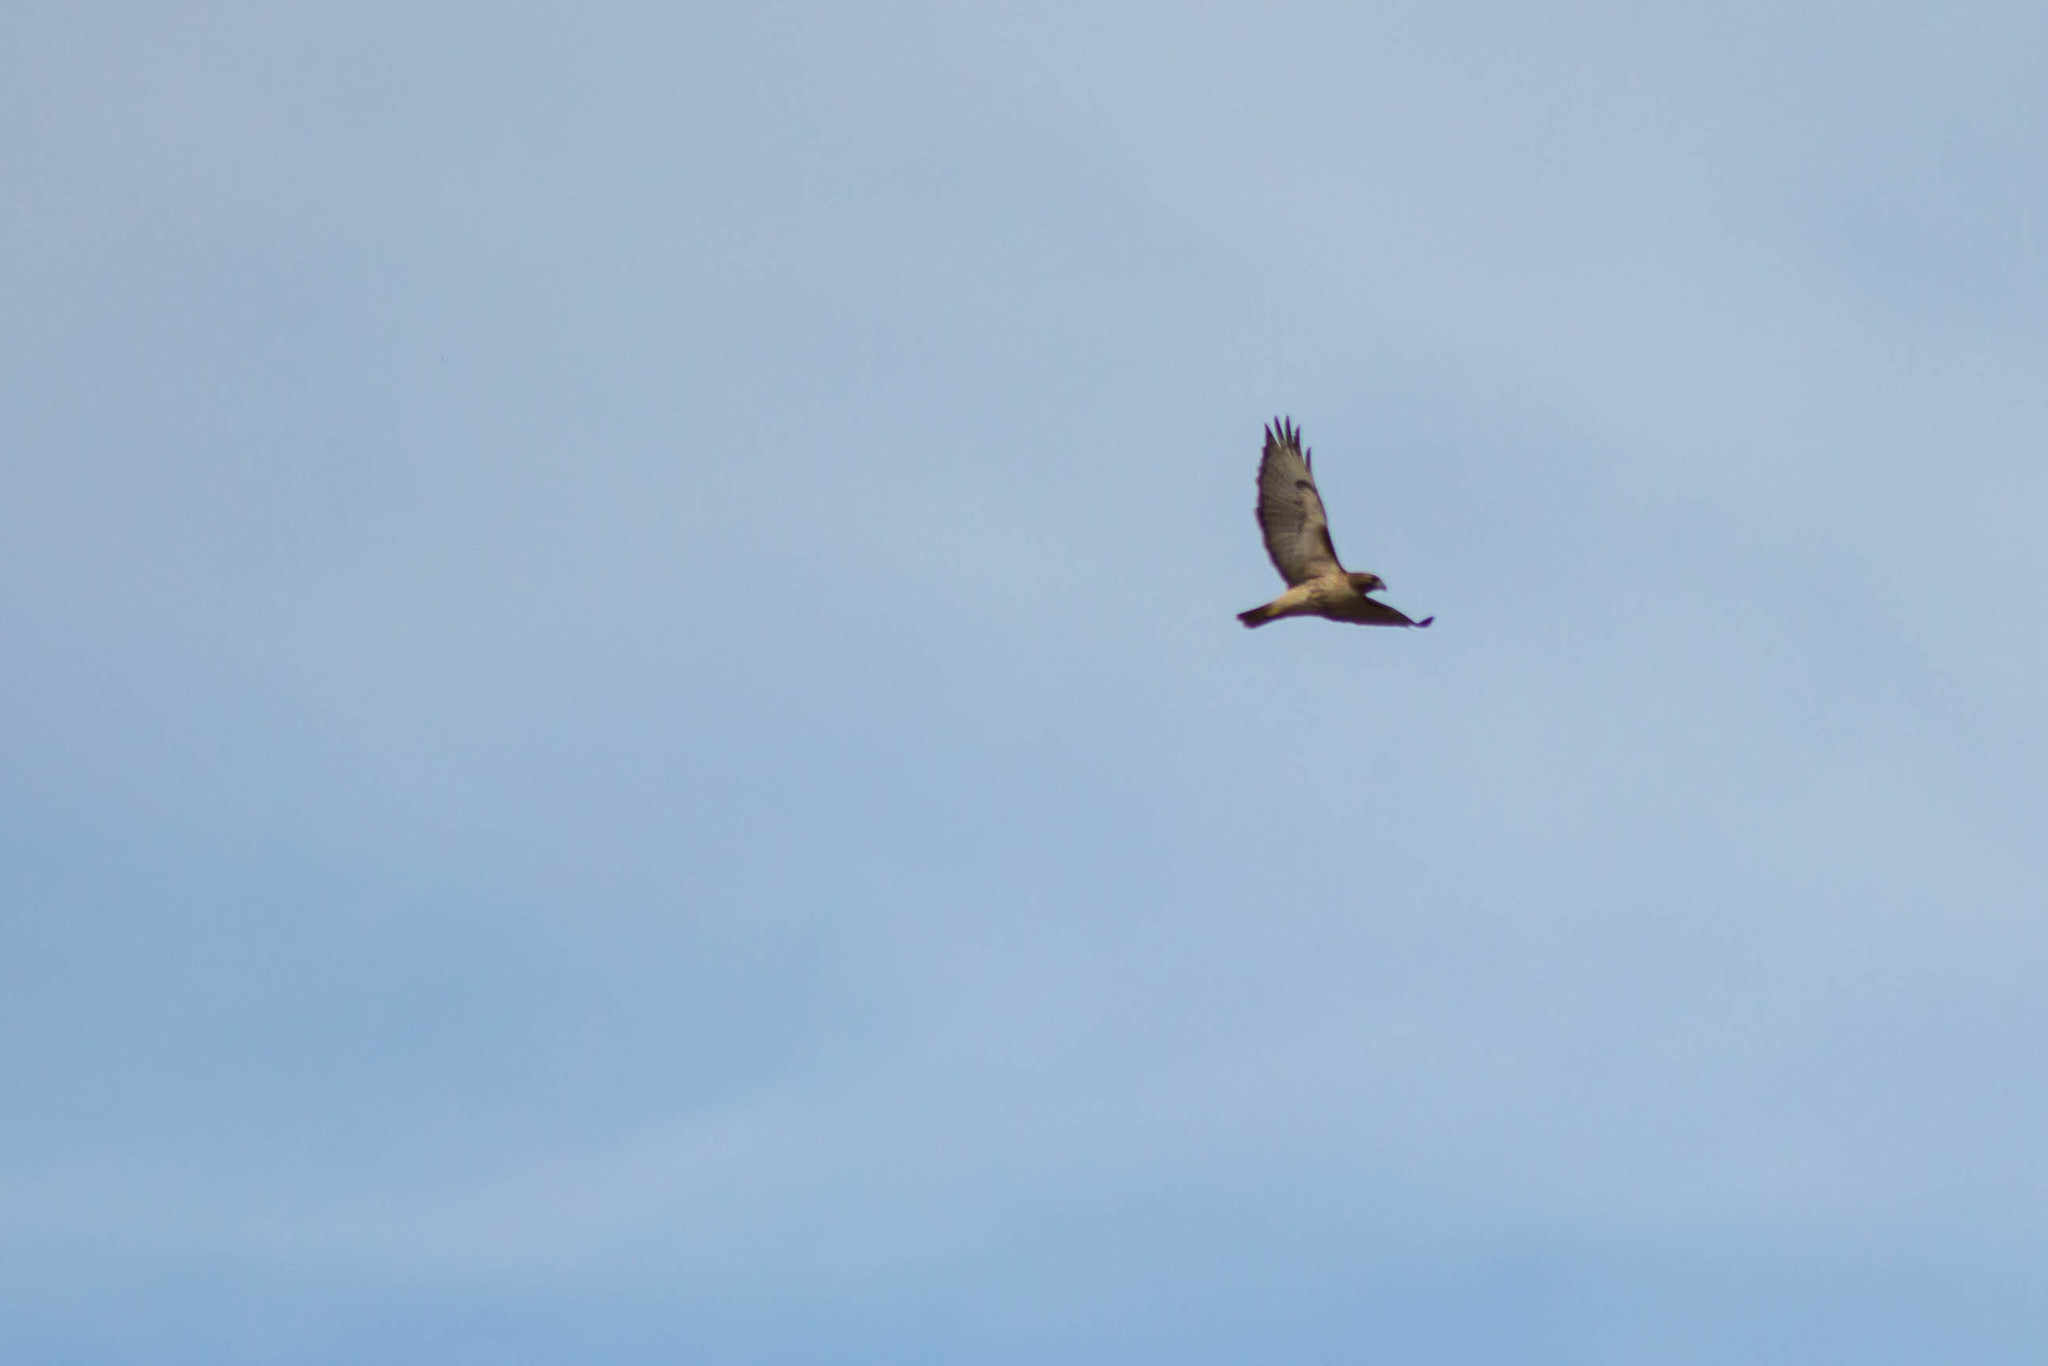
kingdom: Animalia
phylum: Chordata
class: Aves
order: Accipitriformes
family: Accipitridae
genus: Buteo
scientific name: Buteo jamaicensis
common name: Red-tailed hawk
